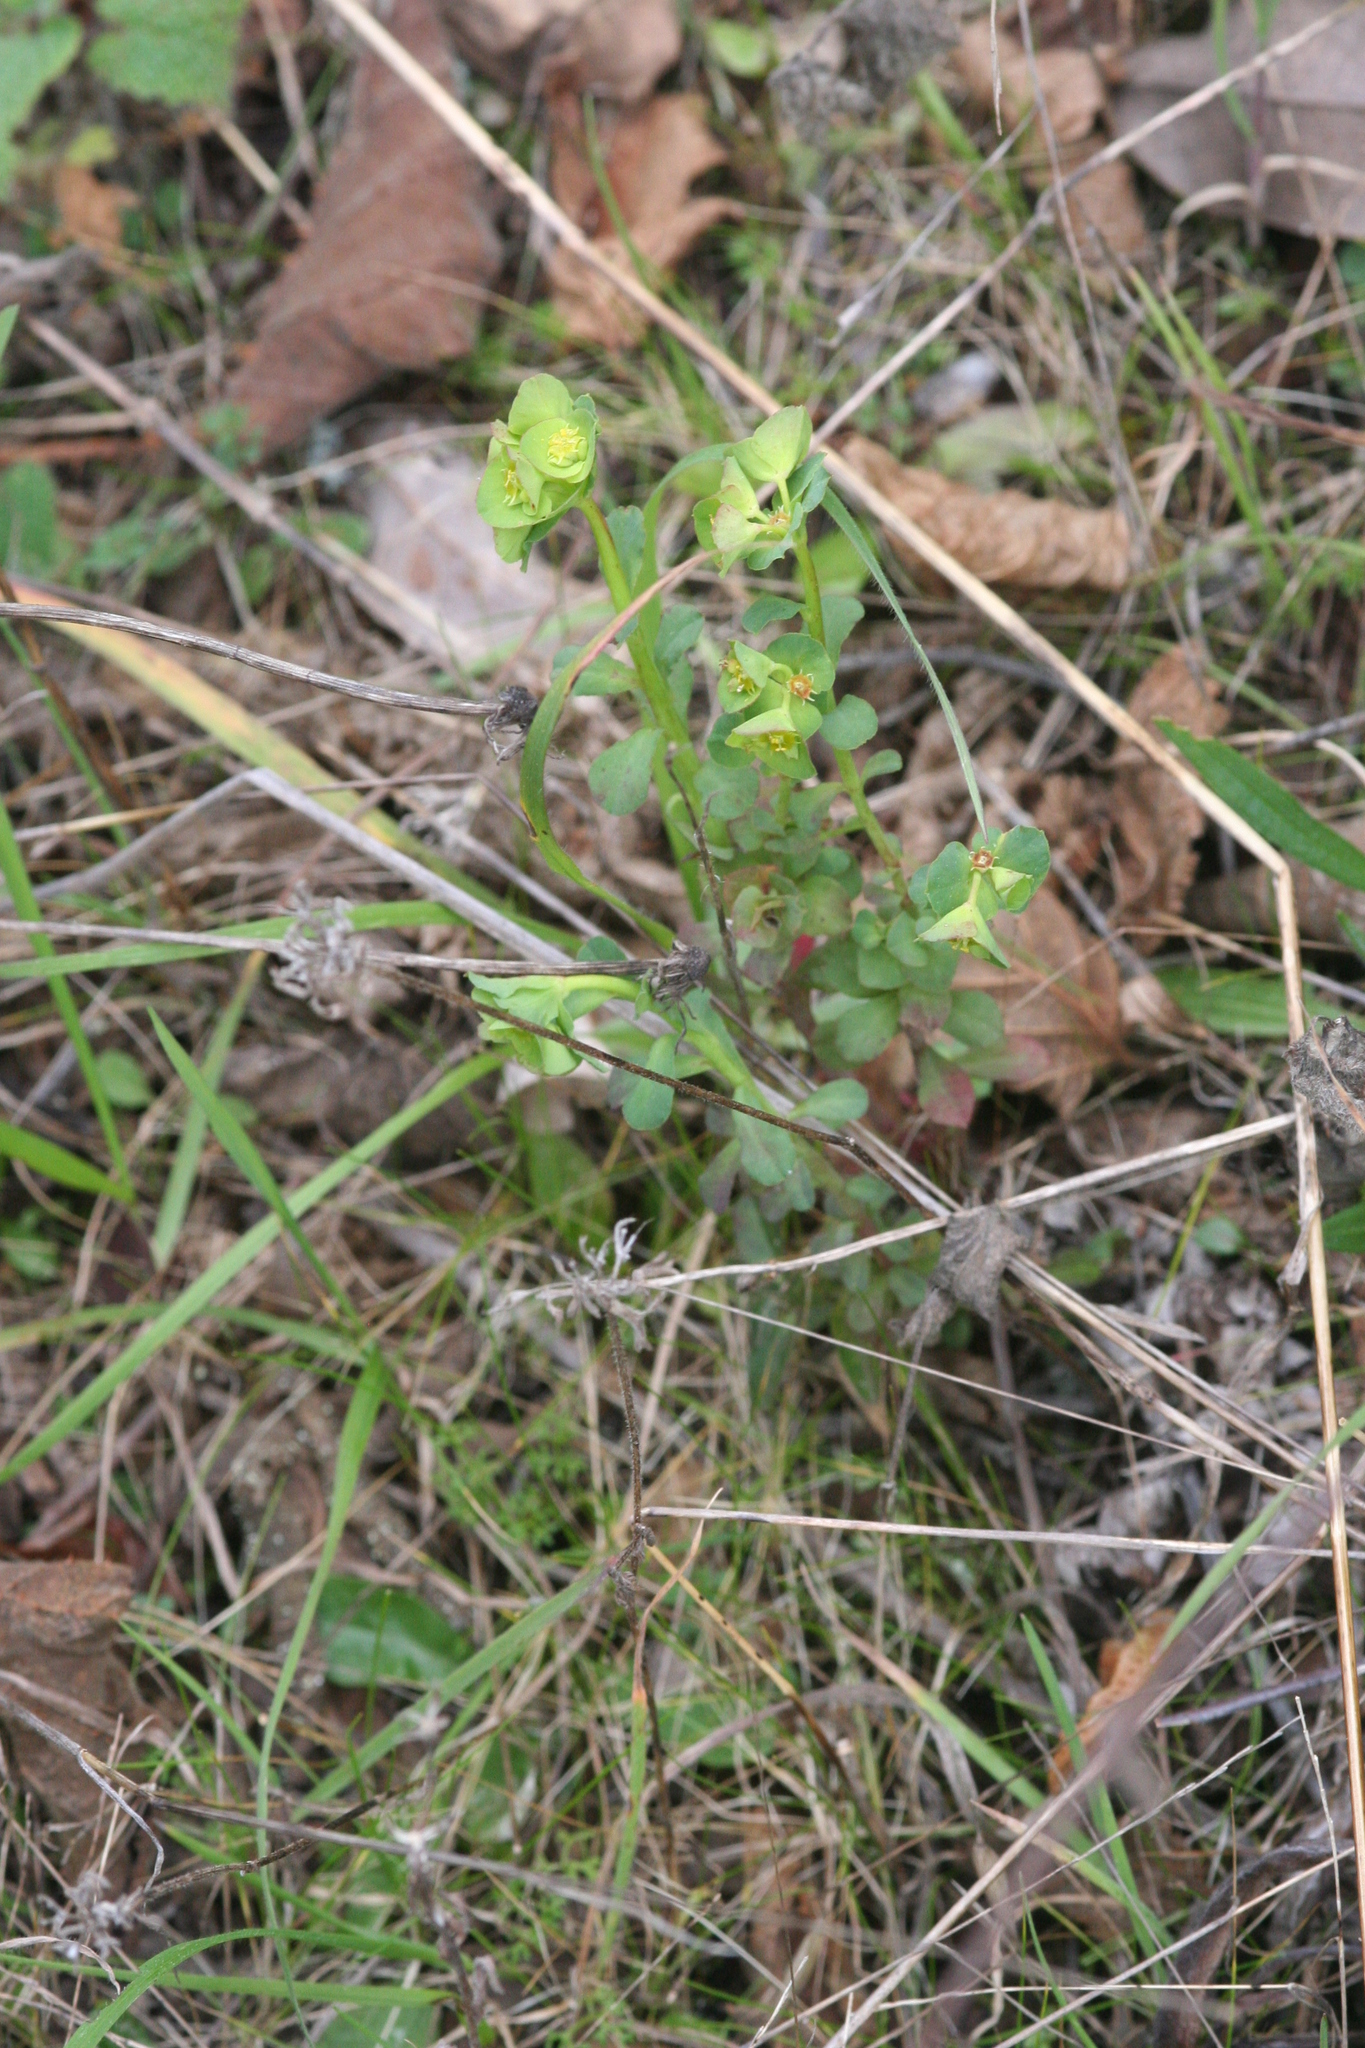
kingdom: Plantae
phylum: Tracheophyta
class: Magnoliopsida
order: Malpighiales
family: Euphorbiaceae
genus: Euphorbia
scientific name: Euphorbia crenulata
